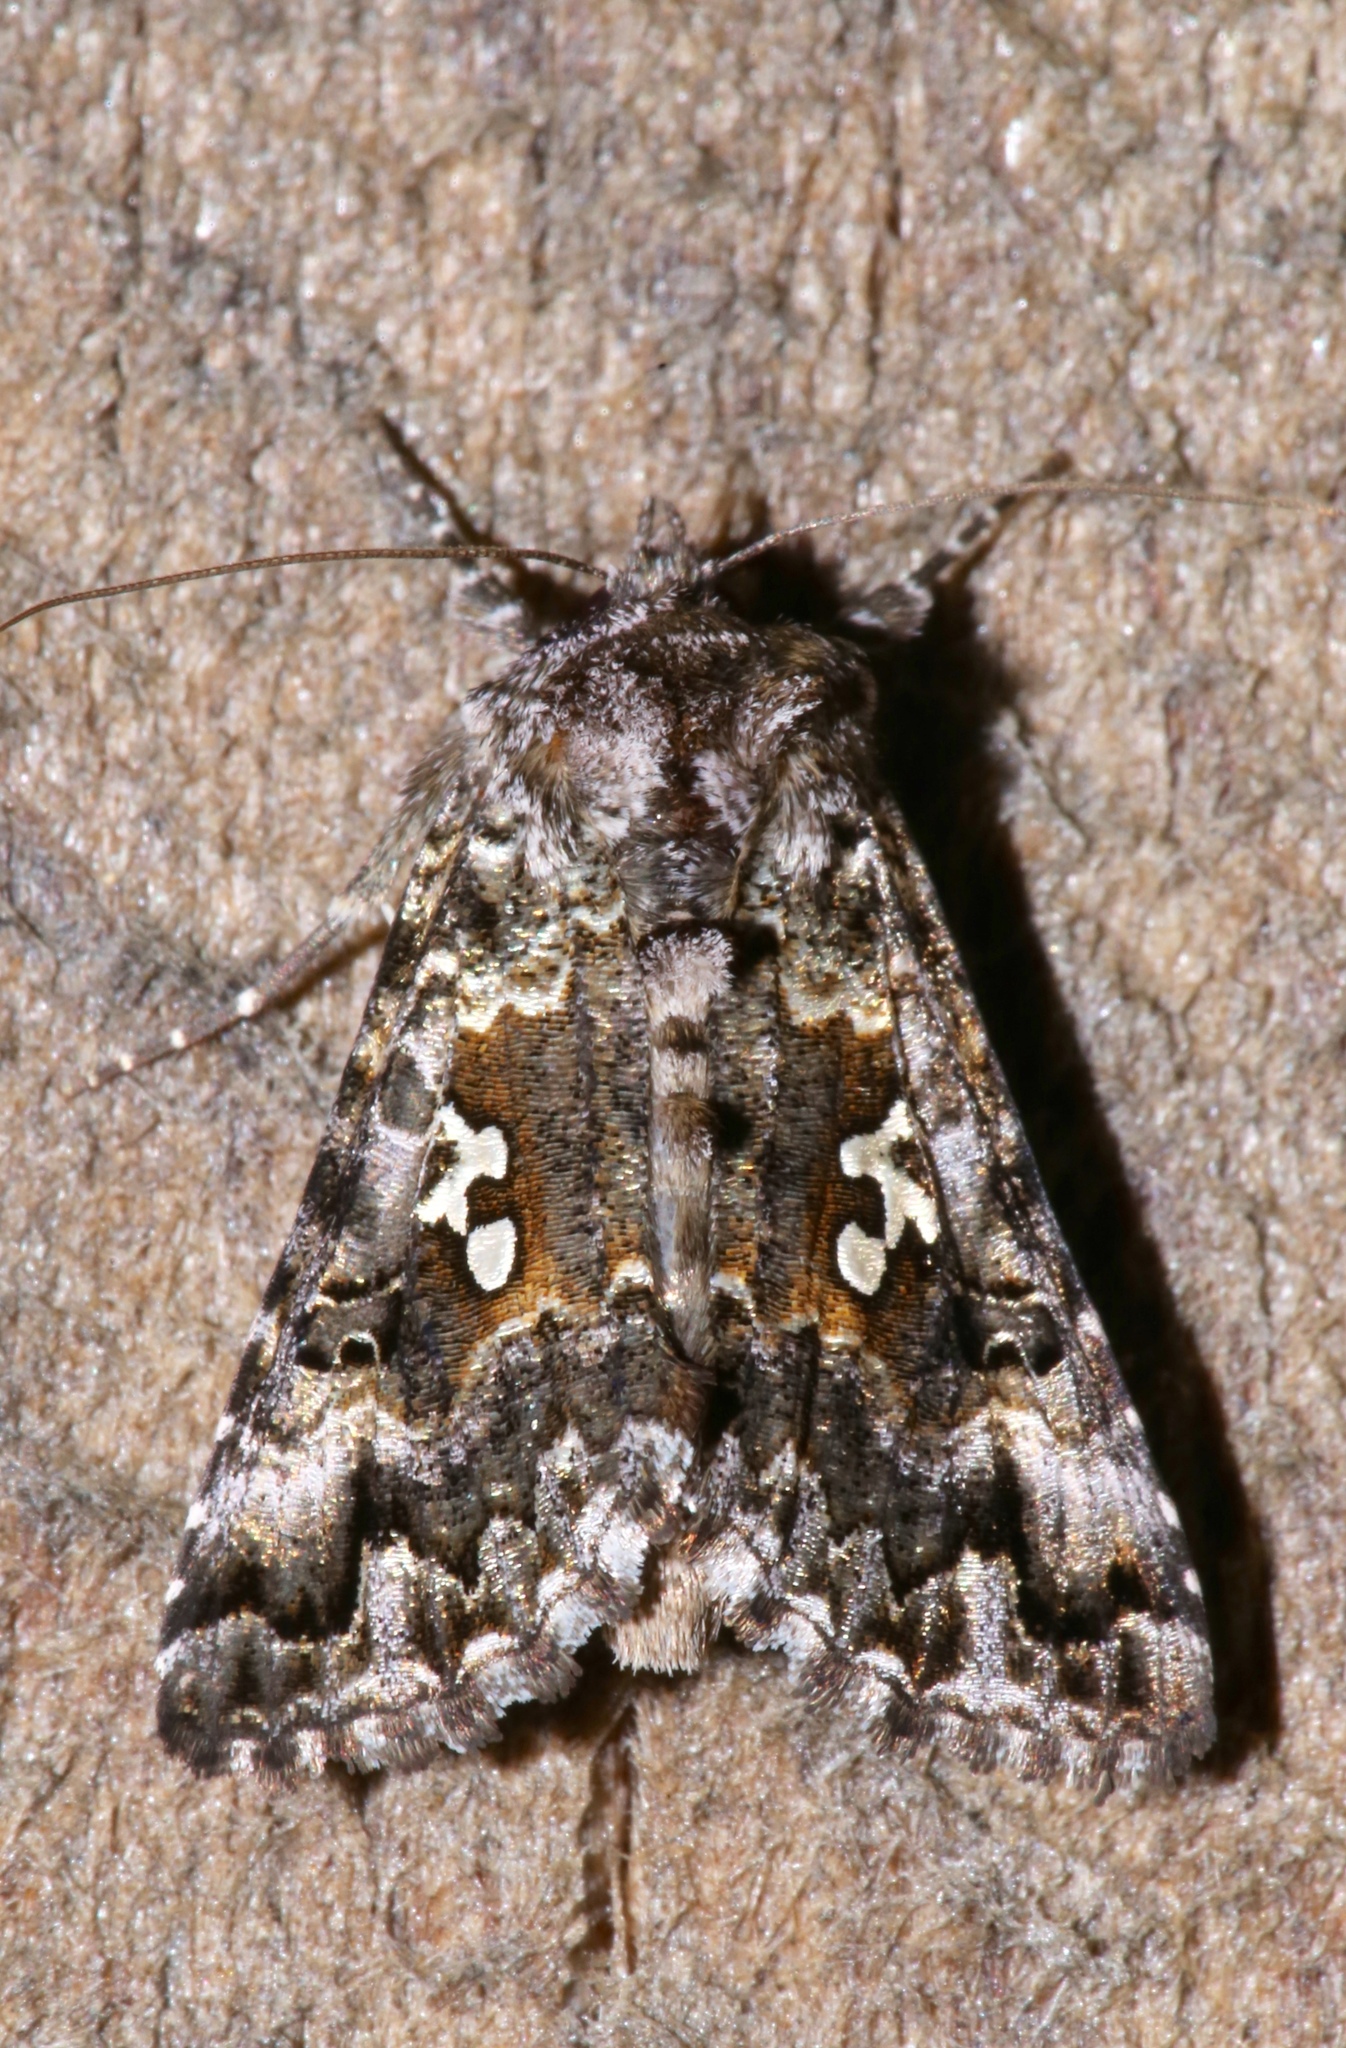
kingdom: Animalia
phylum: Arthropoda
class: Insecta
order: Lepidoptera
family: Noctuidae
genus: Syngrapha
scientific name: Syngrapha octoscripta
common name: Dusky silver y moth
